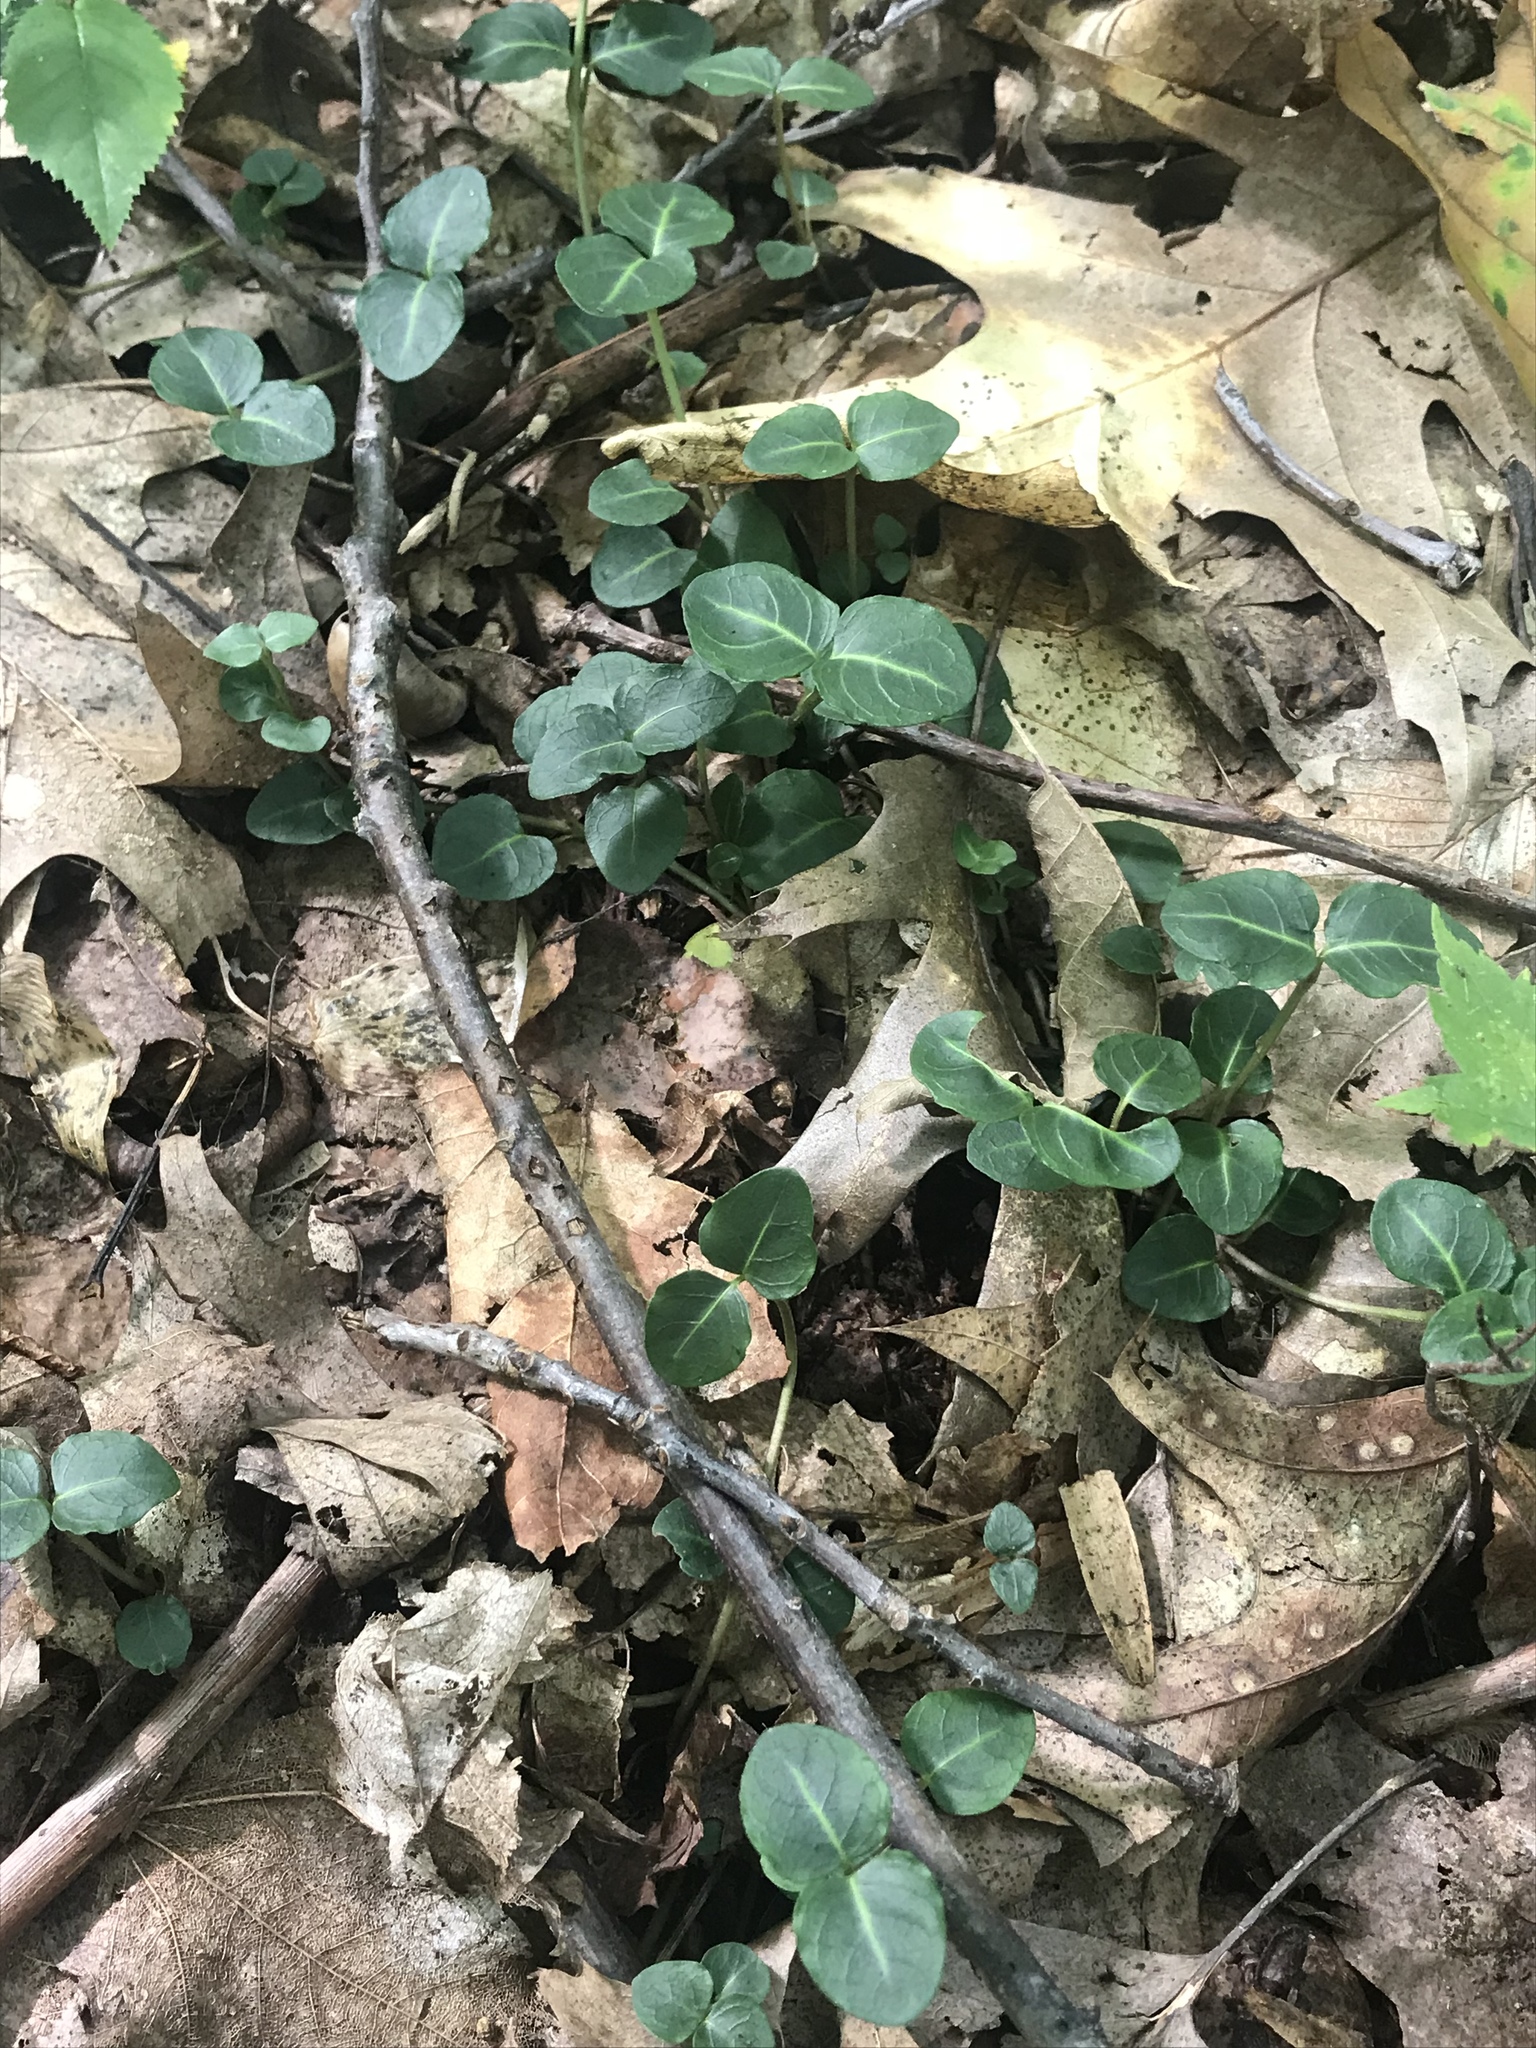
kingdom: Plantae
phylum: Tracheophyta
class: Magnoliopsida
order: Gentianales
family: Rubiaceae
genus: Mitchella
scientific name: Mitchella repens
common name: Partridge-berry
